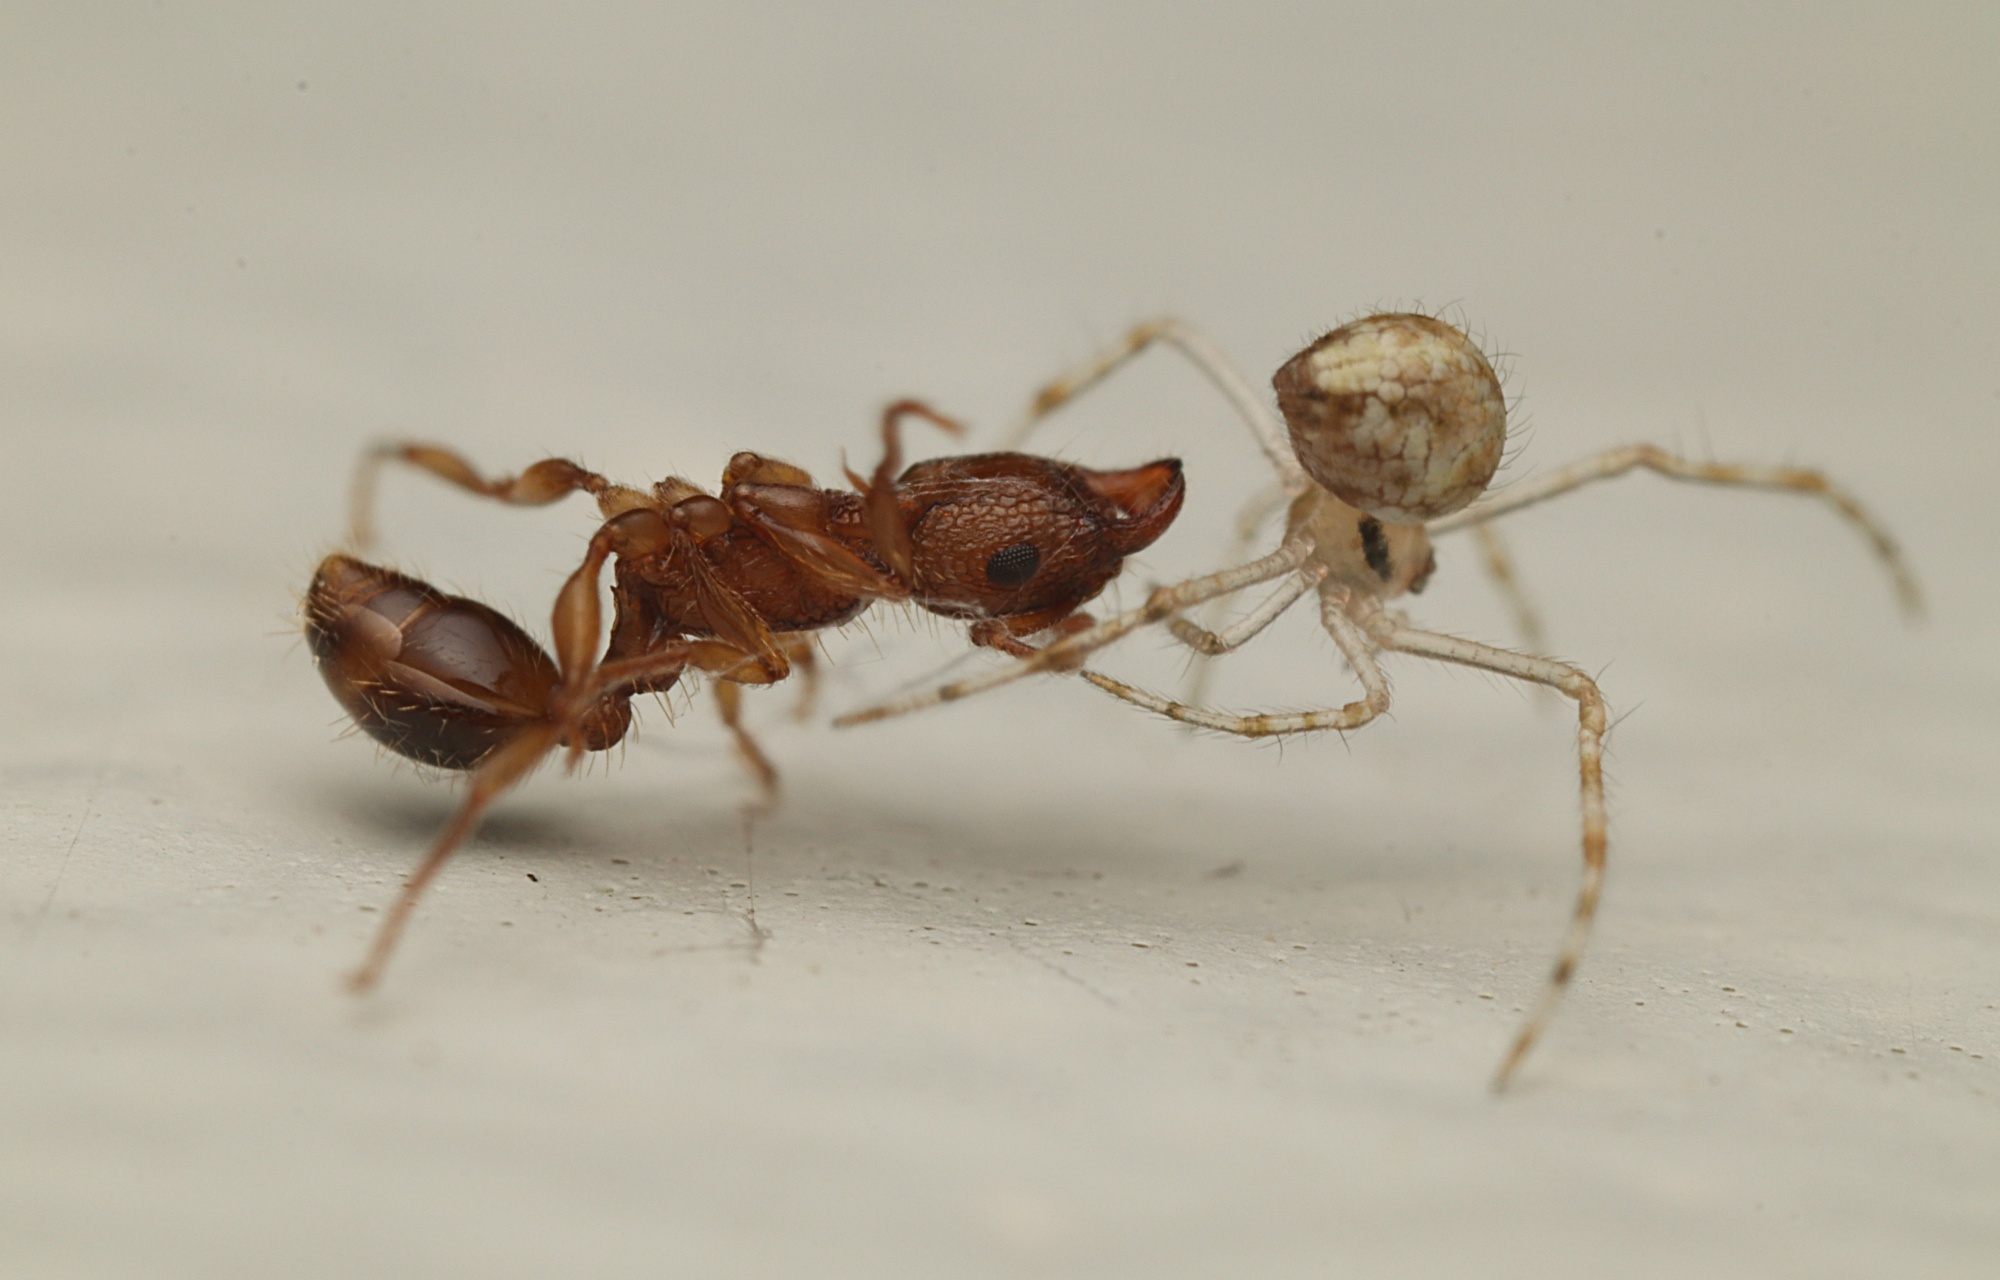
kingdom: Animalia
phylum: Arthropoda
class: Insecta
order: Hymenoptera
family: Formicidae
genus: Tetramorium
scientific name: Tetramorium bicarinatum
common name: Guinea ant
